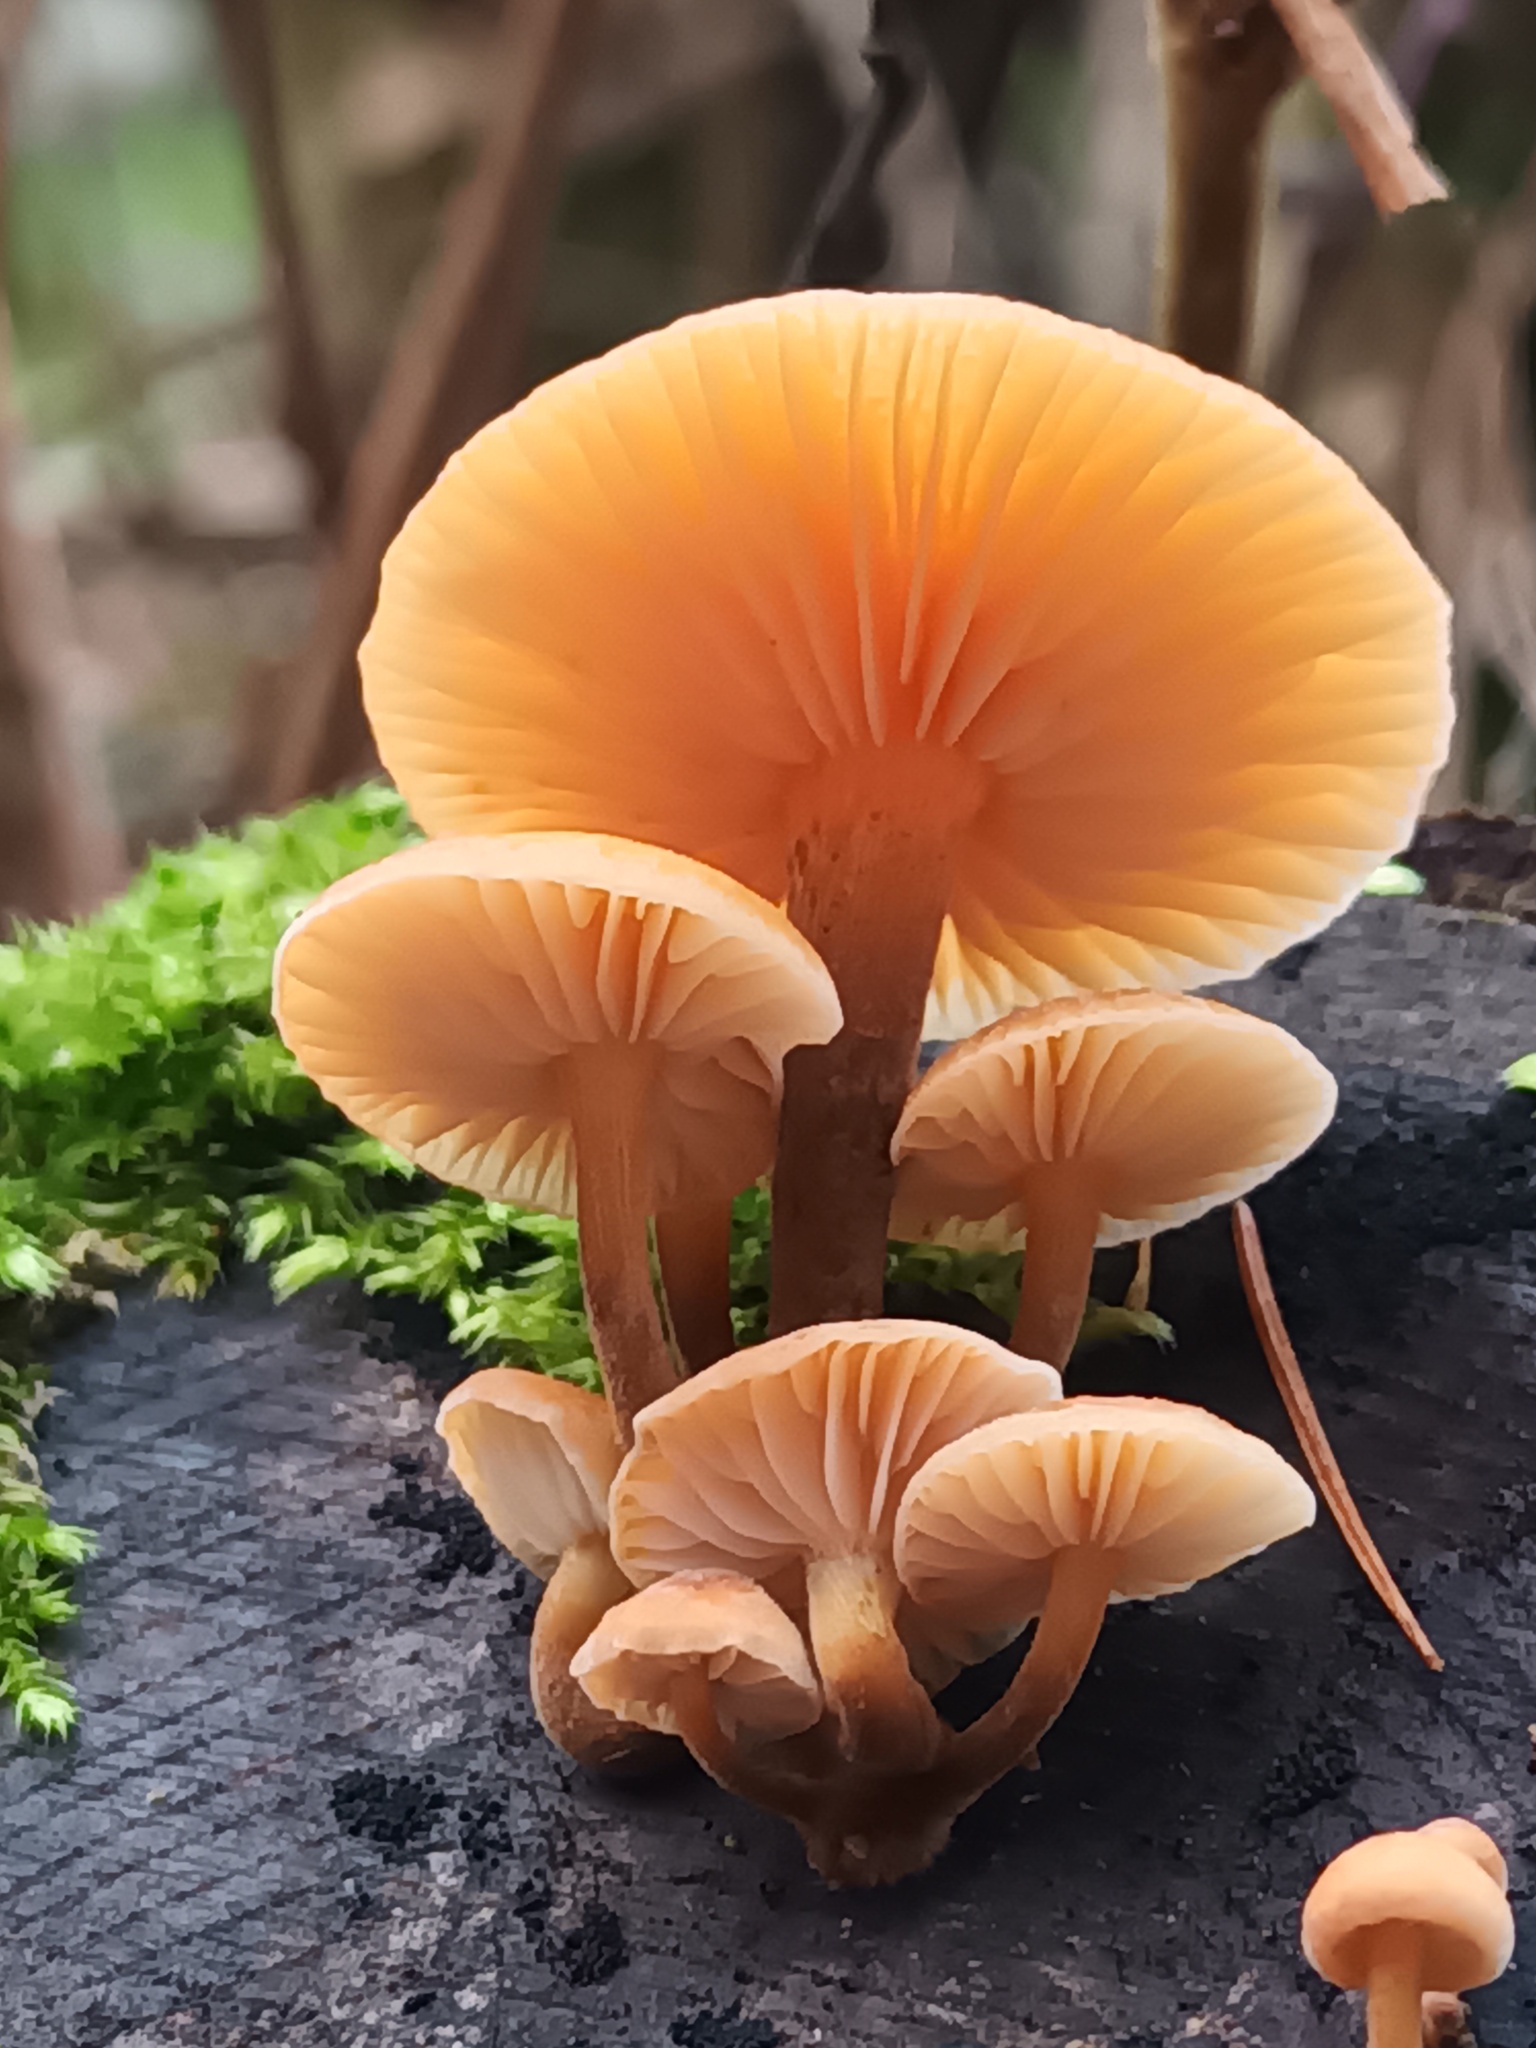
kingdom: Fungi
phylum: Basidiomycota
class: Agaricomycetes
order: Agaricales
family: Physalacriaceae
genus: Flammulina
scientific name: Flammulina
